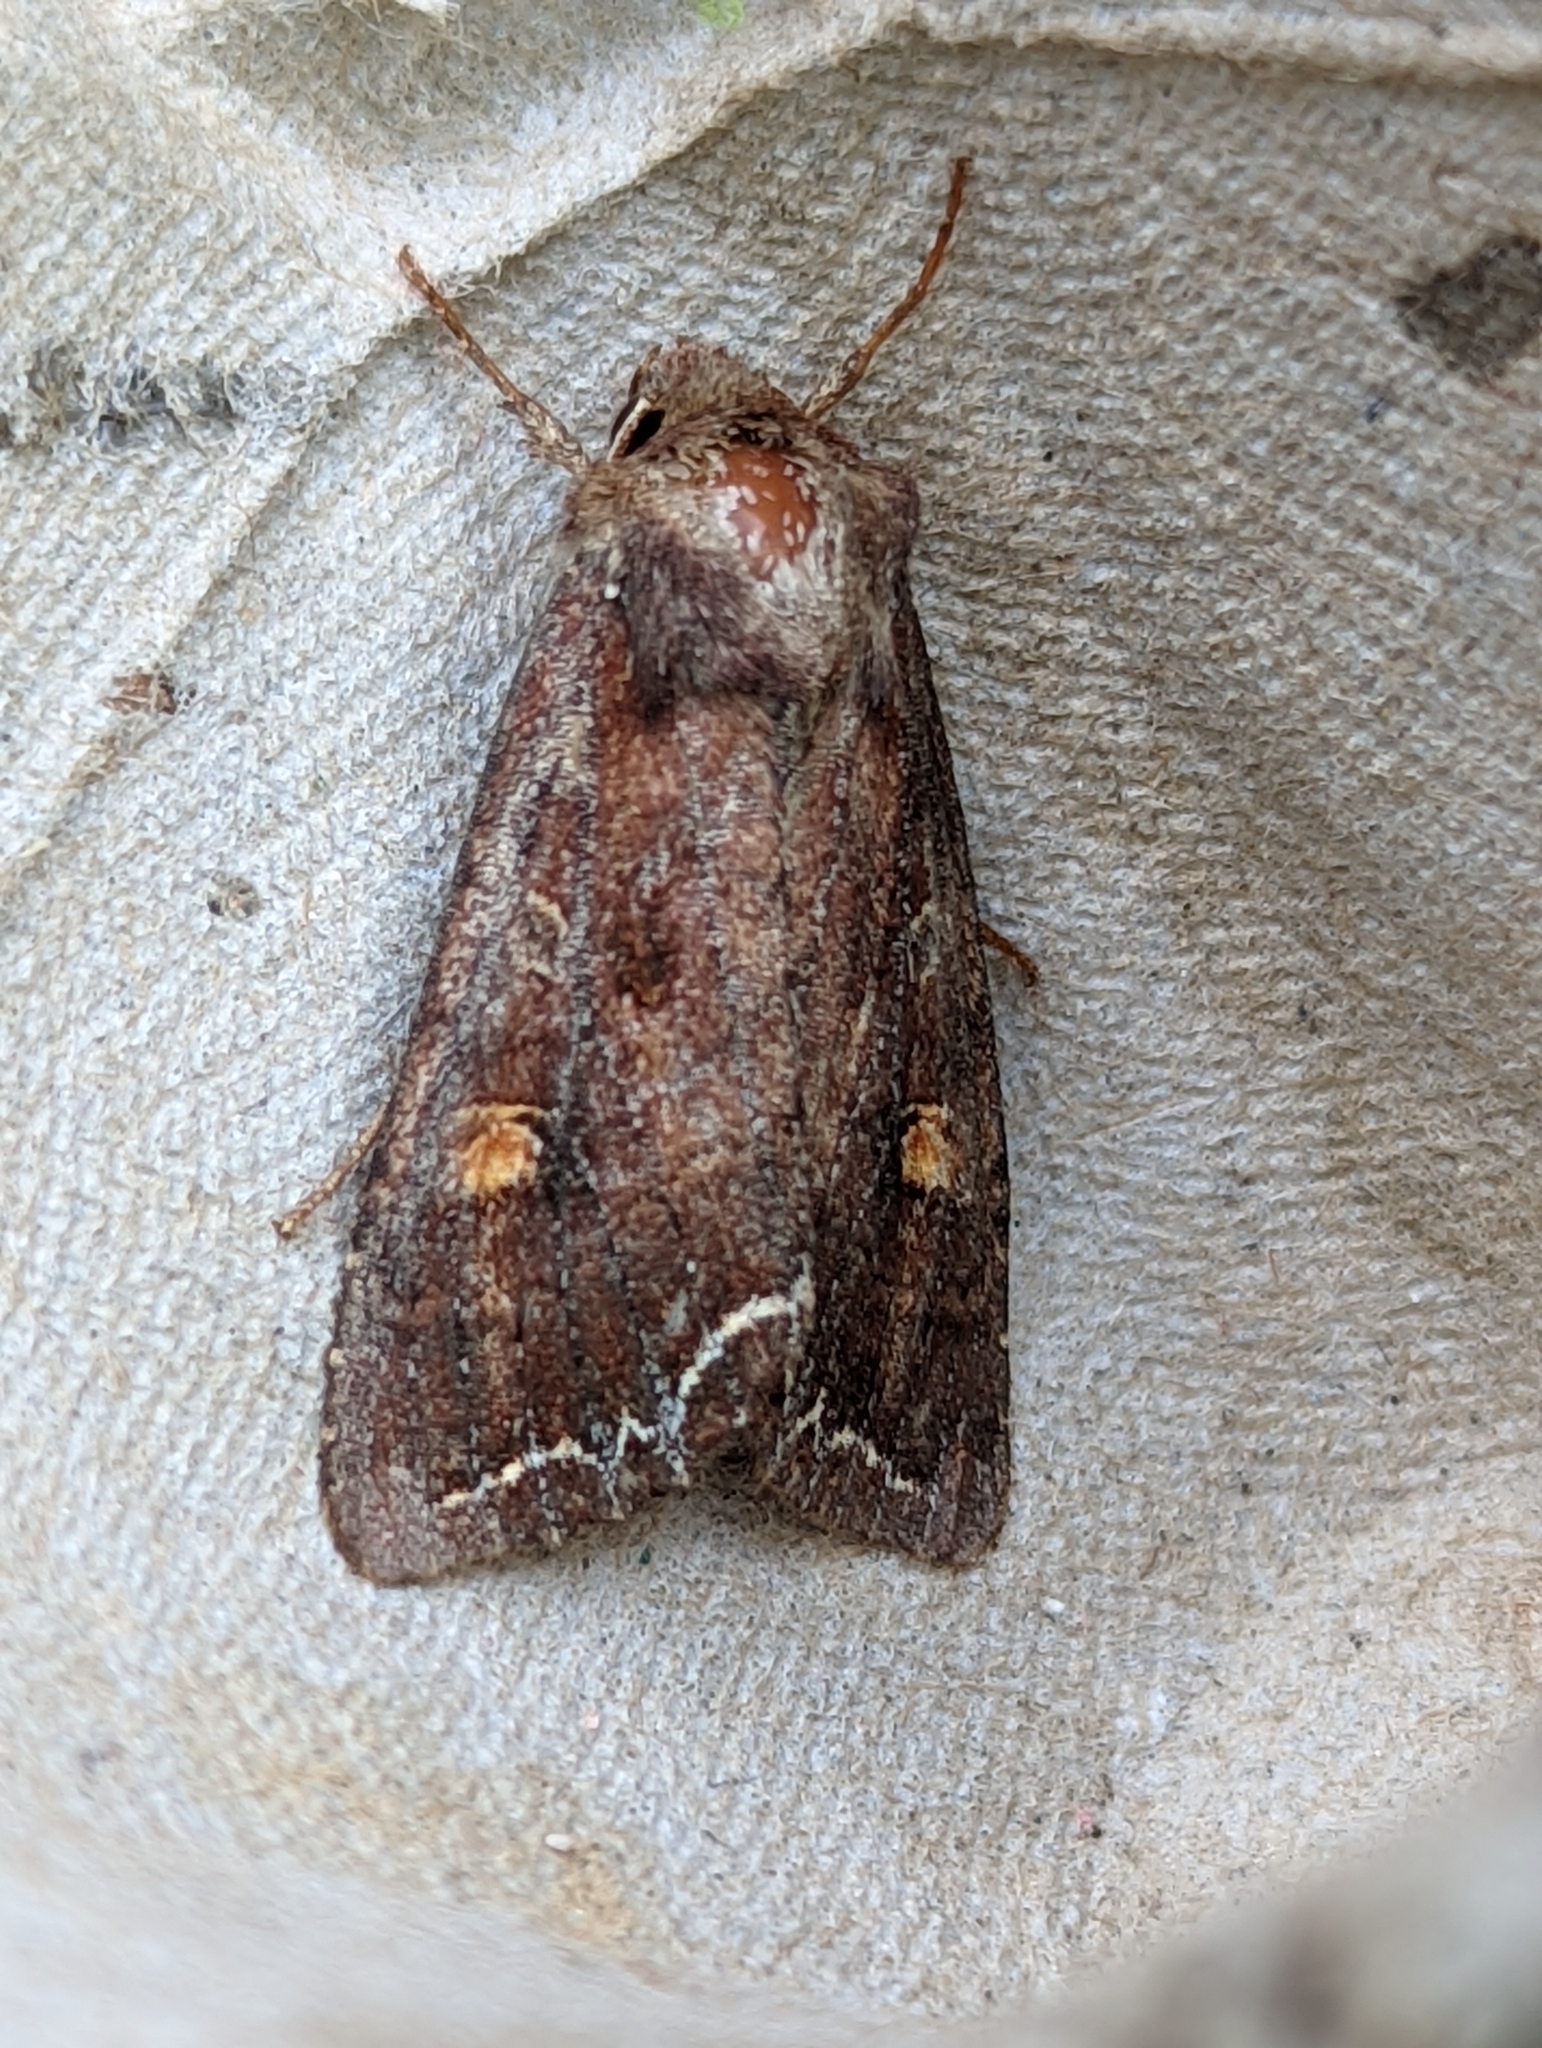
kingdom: Animalia
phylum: Arthropoda
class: Insecta
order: Lepidoptera
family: Noctuidae
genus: Lacanobia
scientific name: Lacanobia oleracea
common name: Bright-line brown-eye
